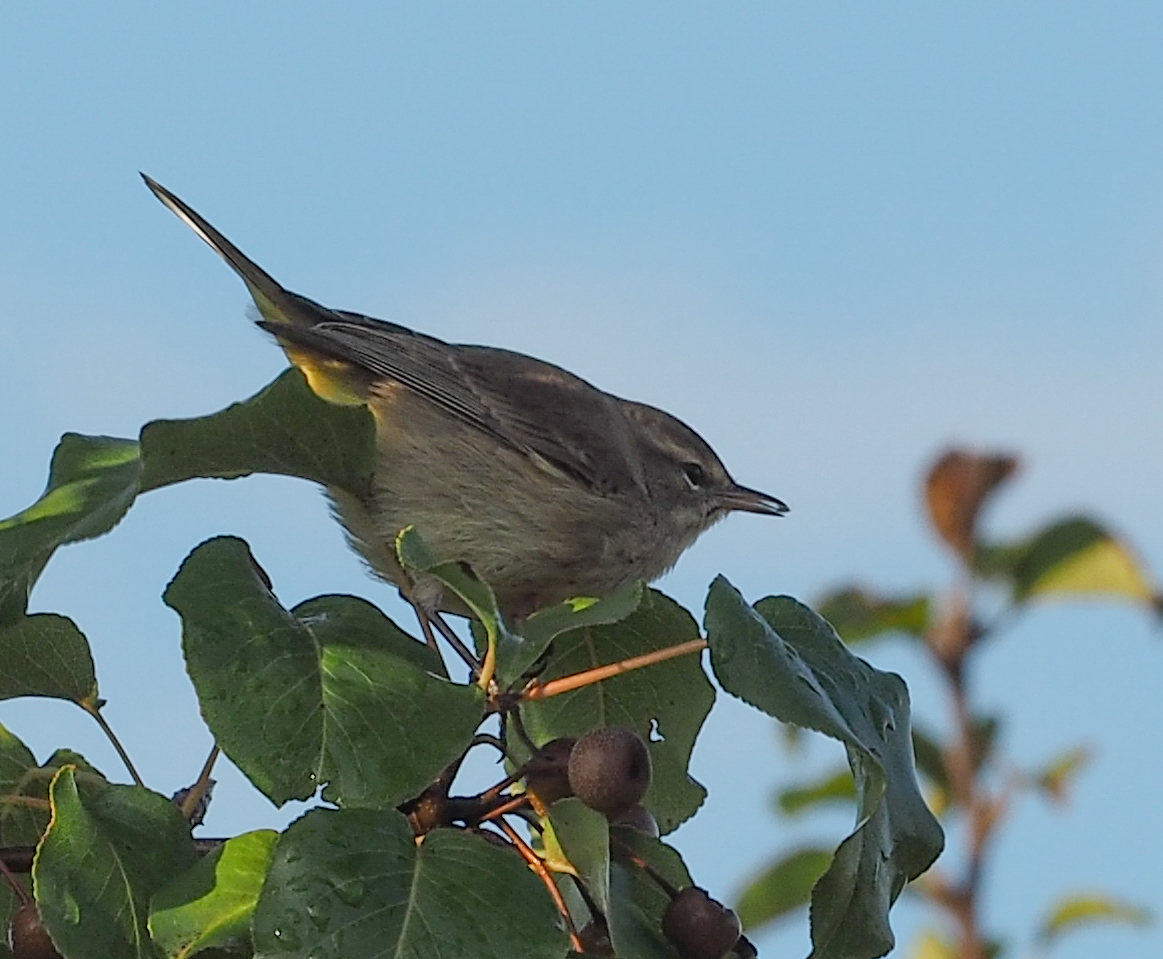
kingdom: Animalia
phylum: Chordata
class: Aves
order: Passeriformes
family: Parulidae
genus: Setophaga
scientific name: Setophaga palmarum
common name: Palm warbler
